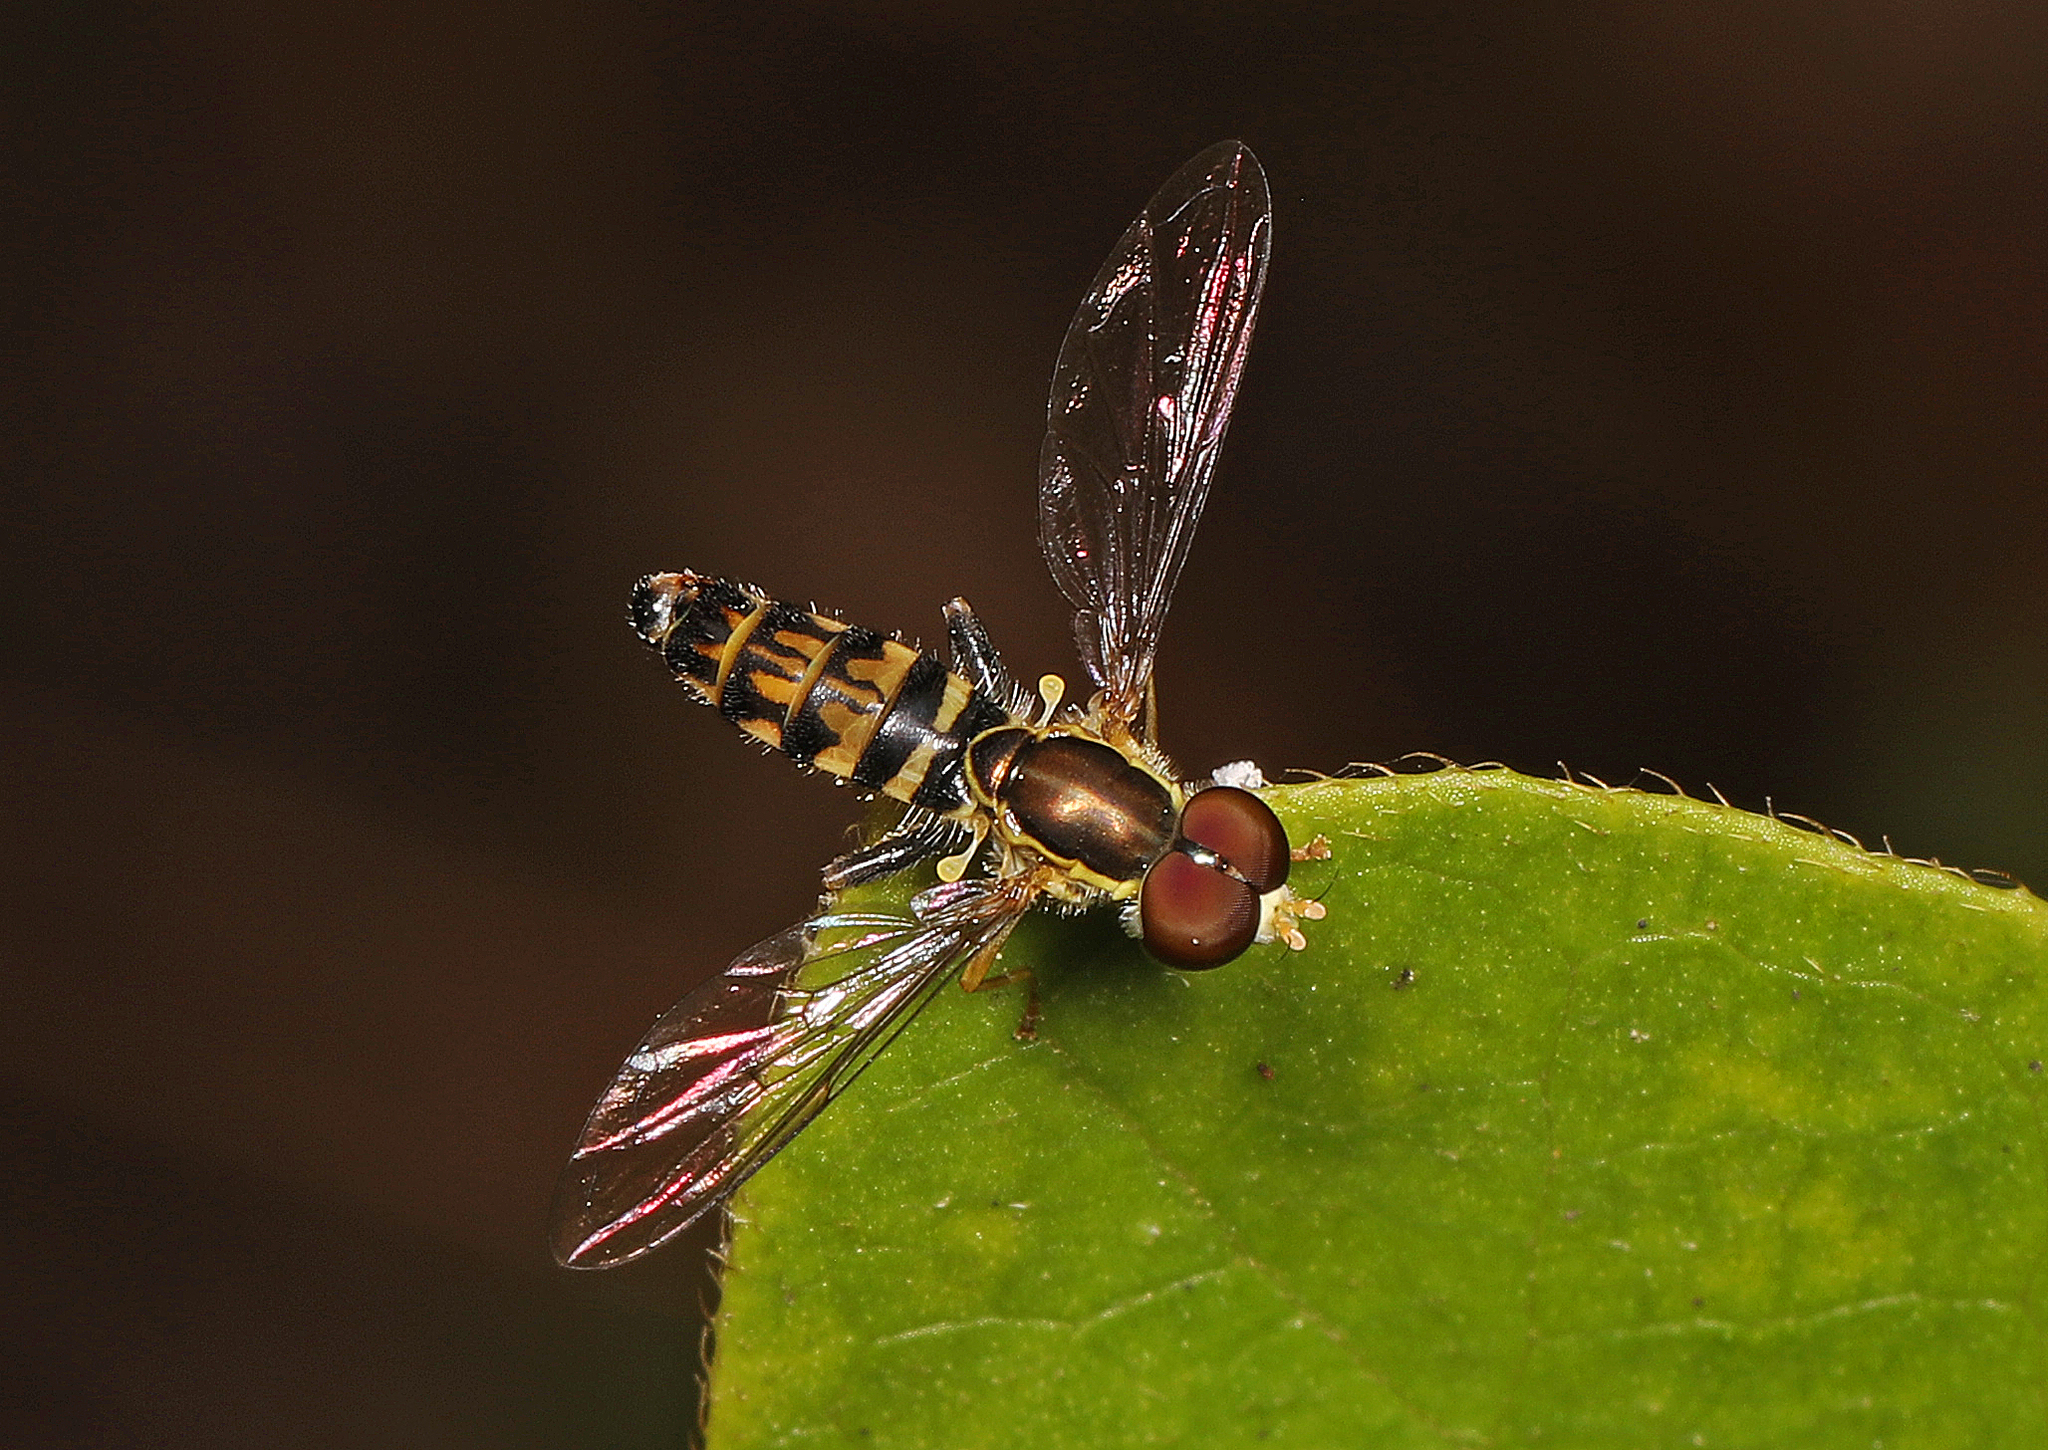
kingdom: Animalia
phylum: Arthropoda
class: Insecta
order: Diptera
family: Syrphidae
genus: Toxomerus
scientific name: Toxomerus geminatus
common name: Eastern calligrapher
